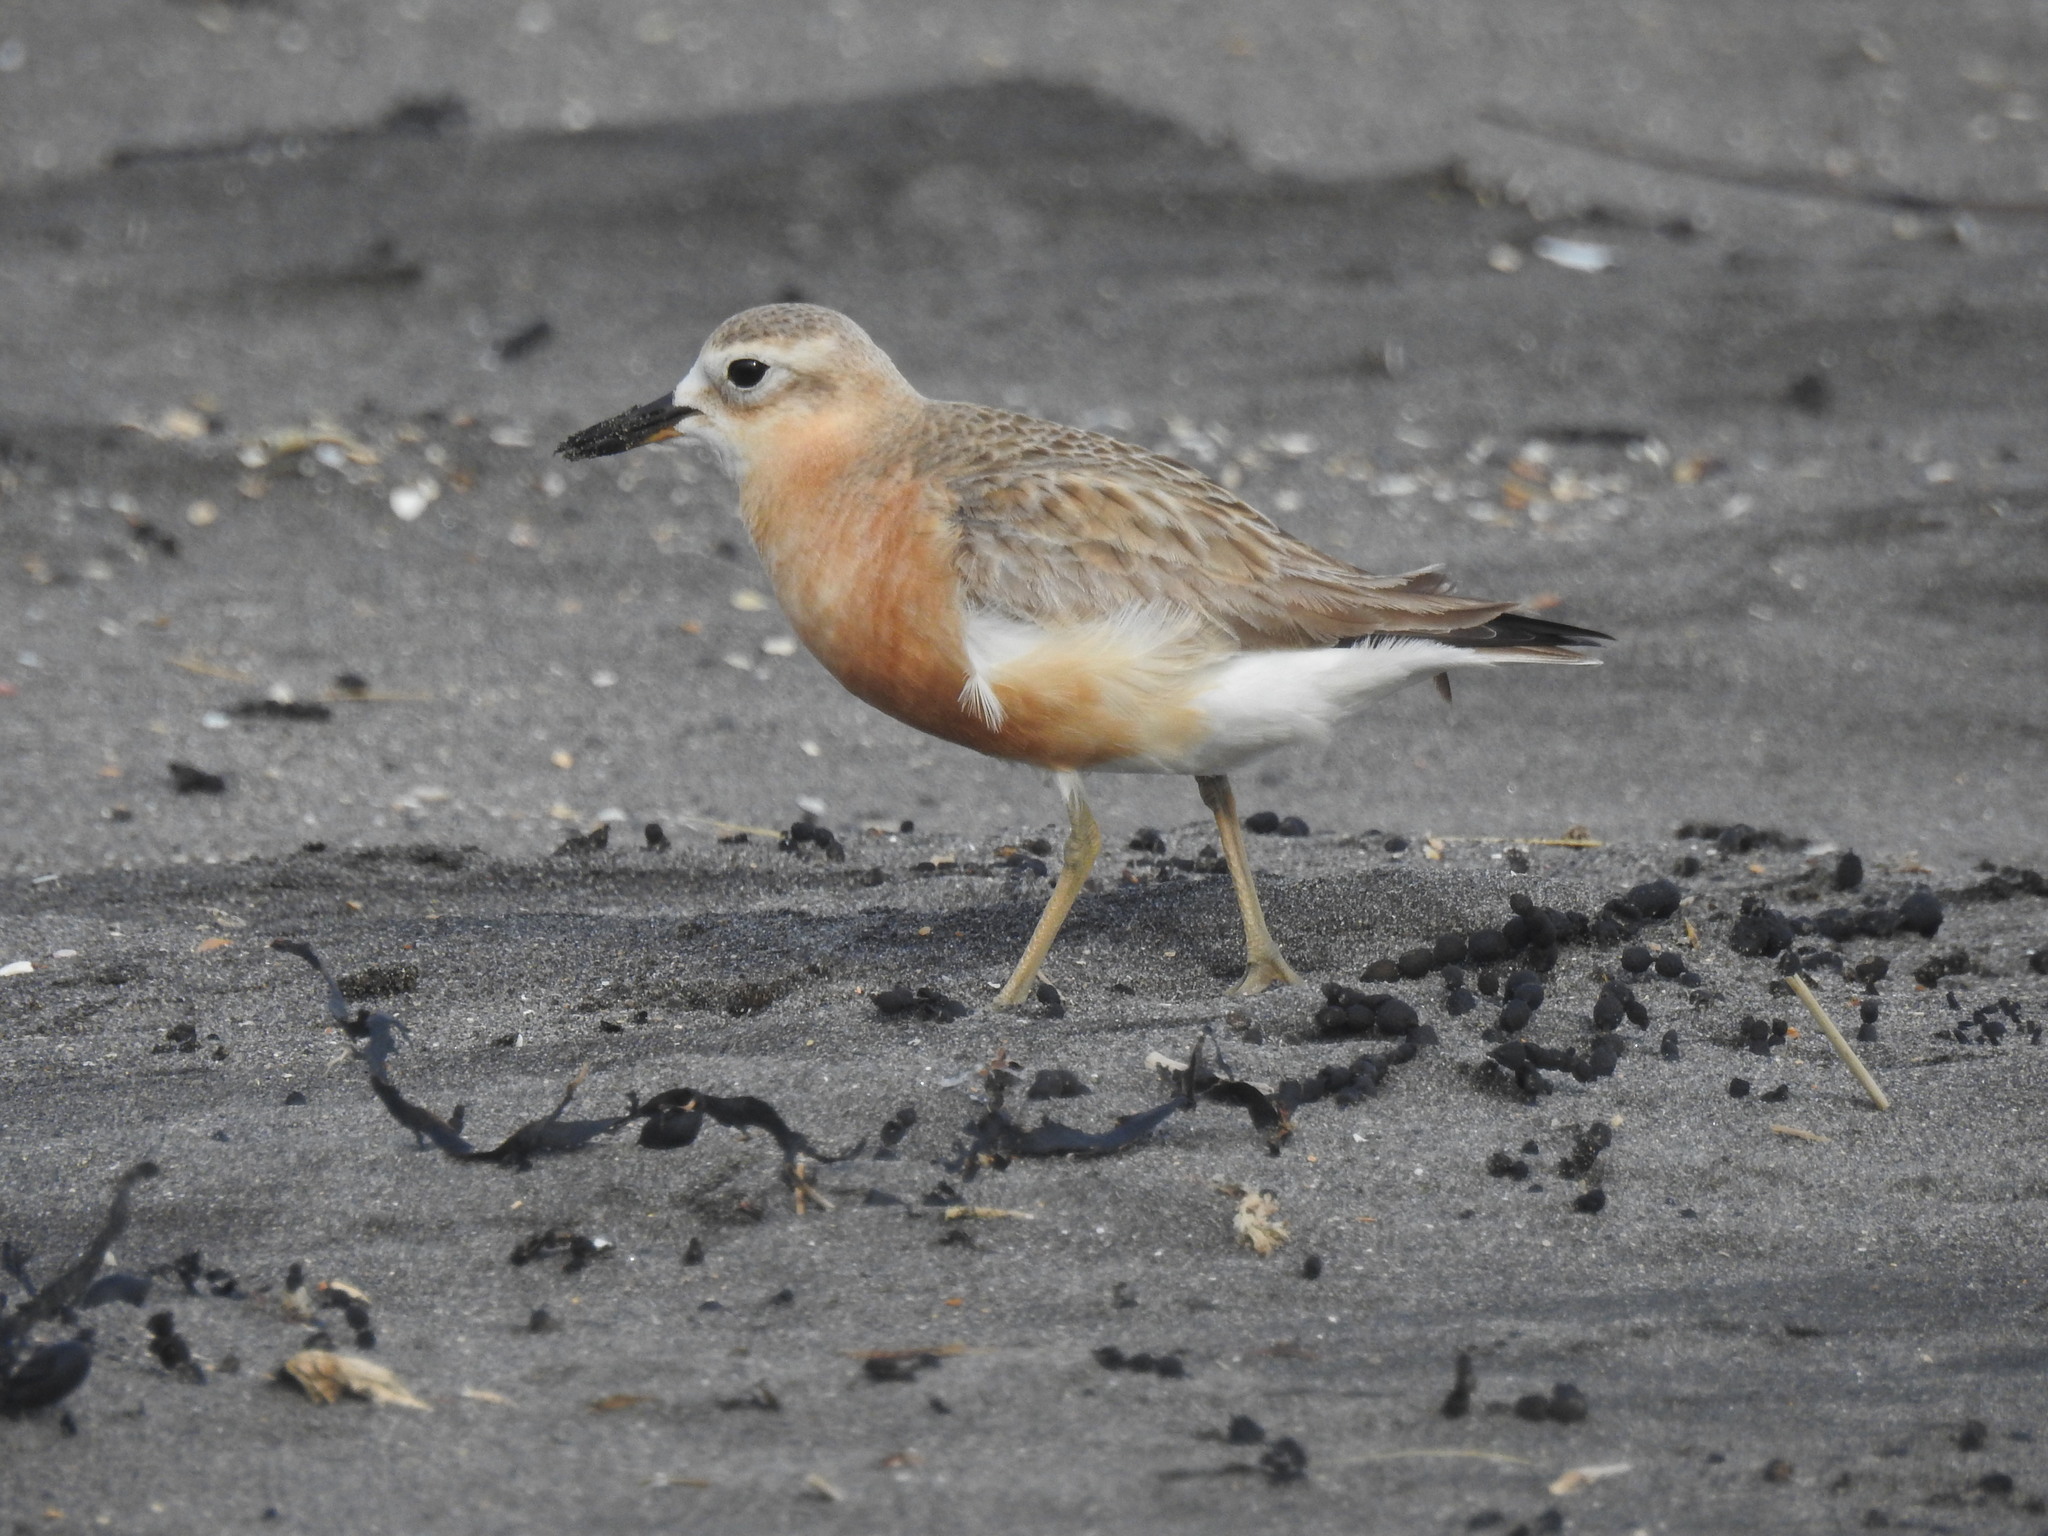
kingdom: Animalia
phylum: Chordata
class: Aves
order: Charadriiformes
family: Charadriidae
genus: Anarhynchus
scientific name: Anarhynchus
